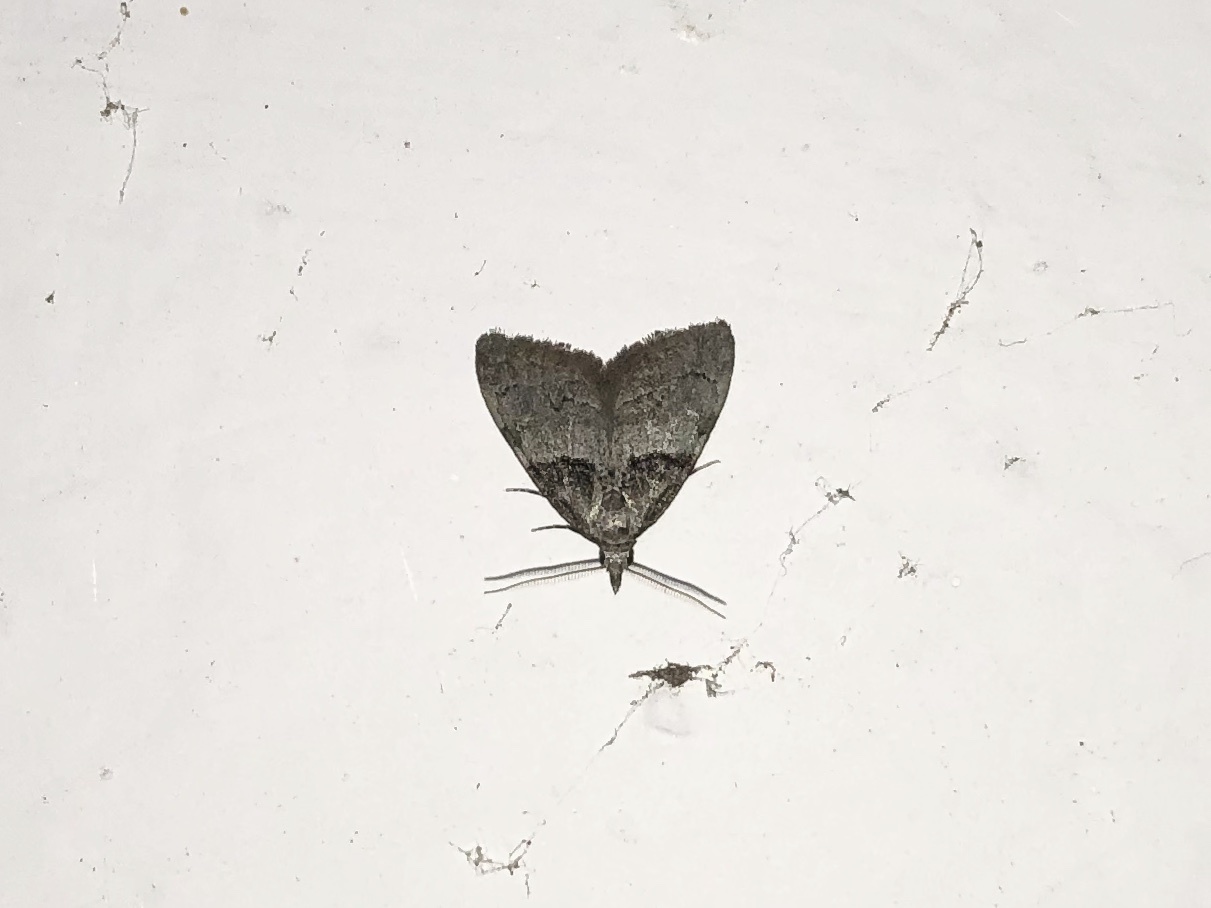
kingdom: Animalia
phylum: Arthropoda
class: Insecta
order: Lepidoptera
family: Nolidae
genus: Nola
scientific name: Nola cucullatella
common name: Short-cloaked moth
